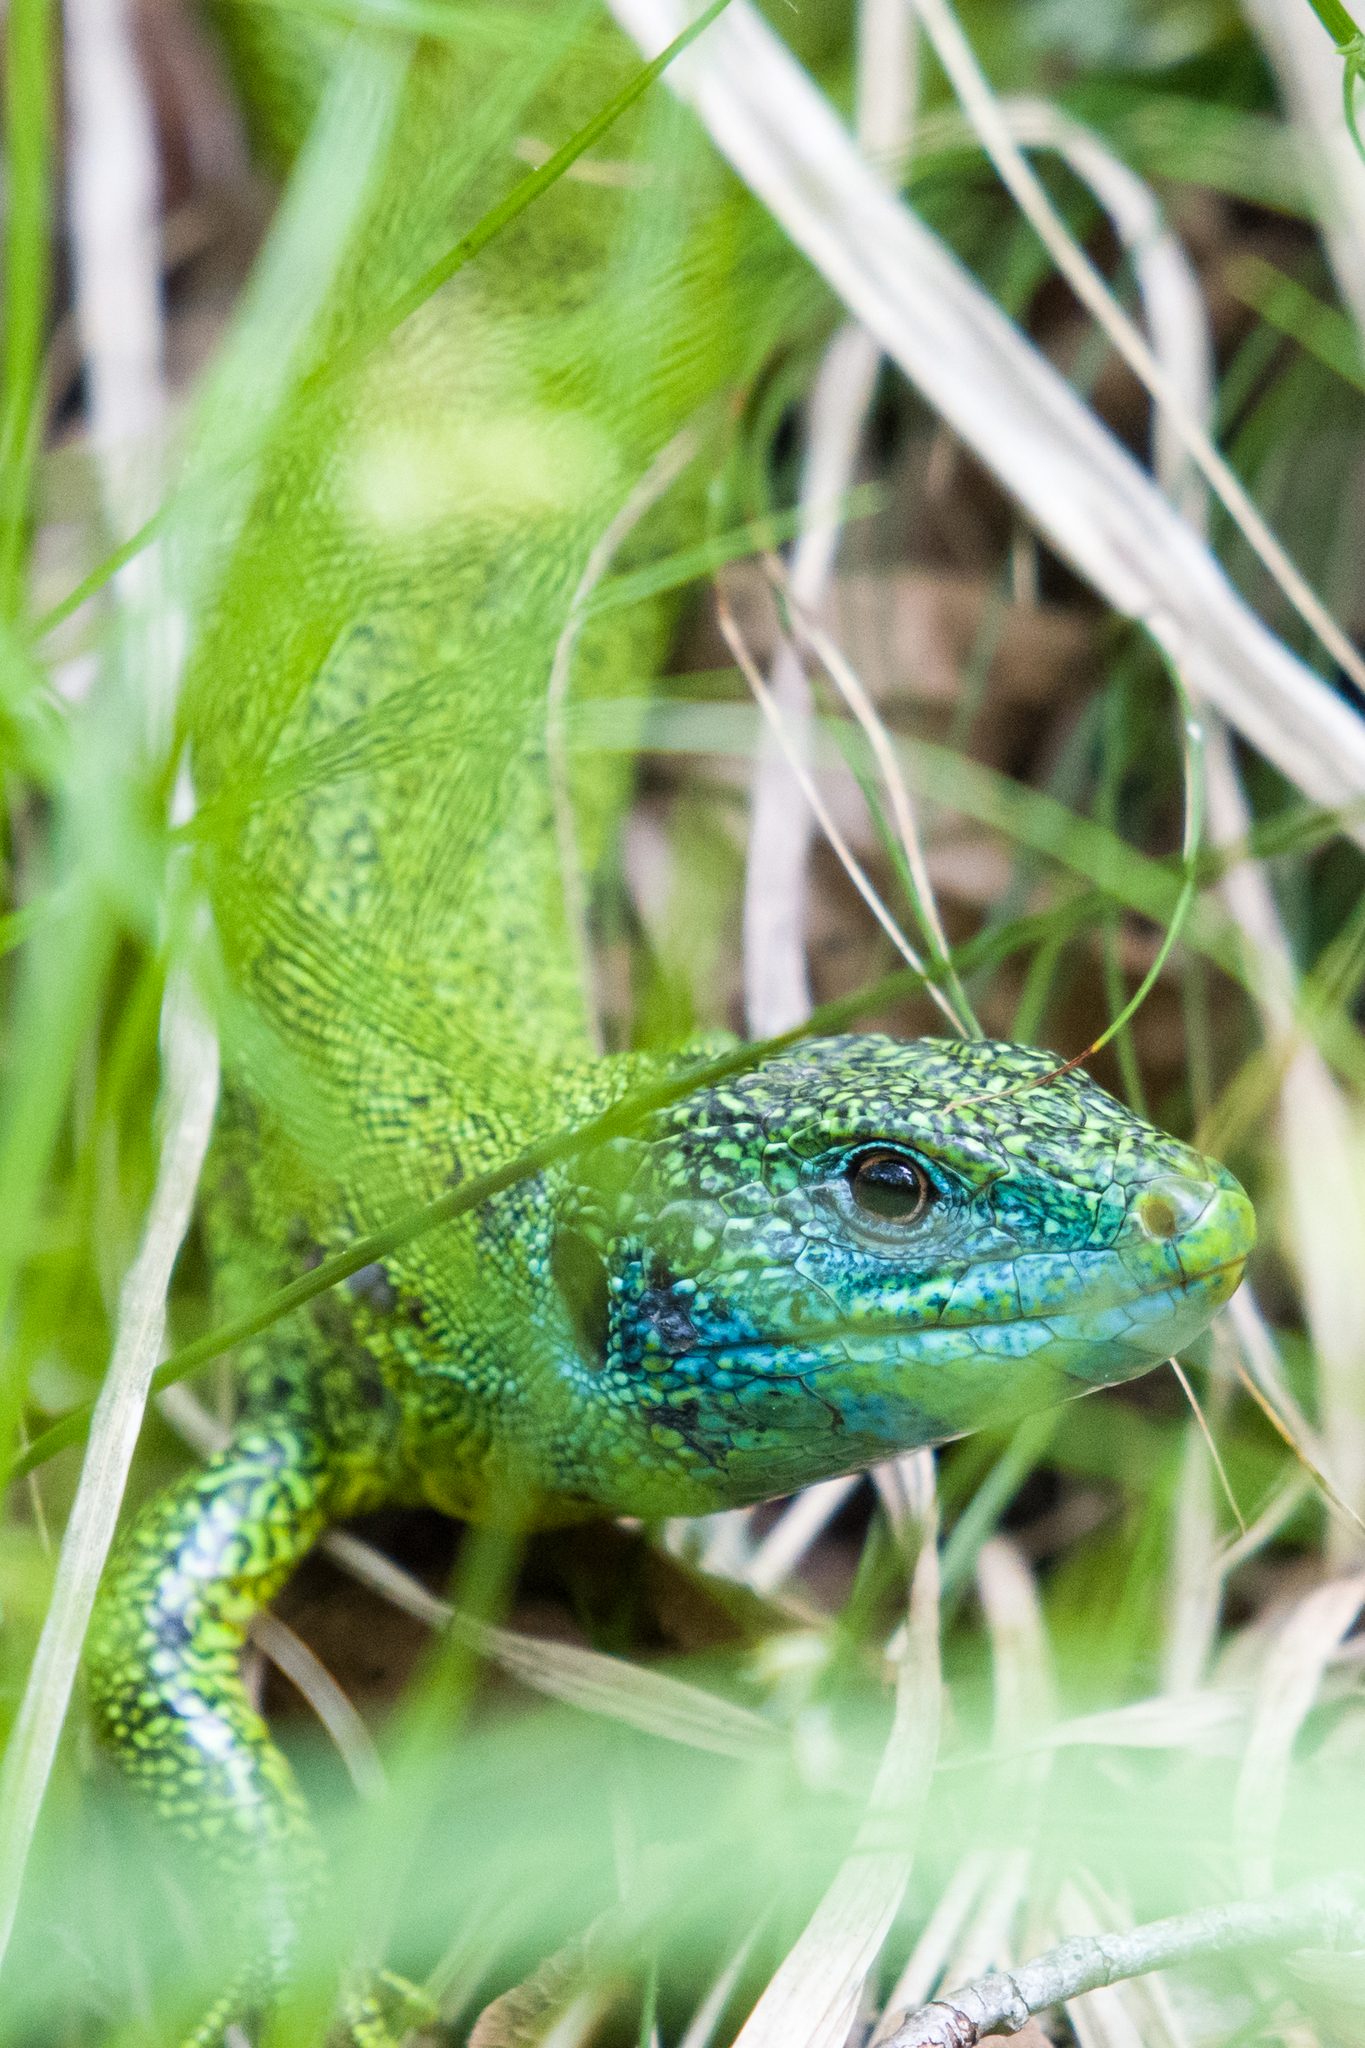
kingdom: Animalia
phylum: Chordata
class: Squamata
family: Lacertidae
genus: Lacerta
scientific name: Lacerta bilineata
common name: Western green lizard
